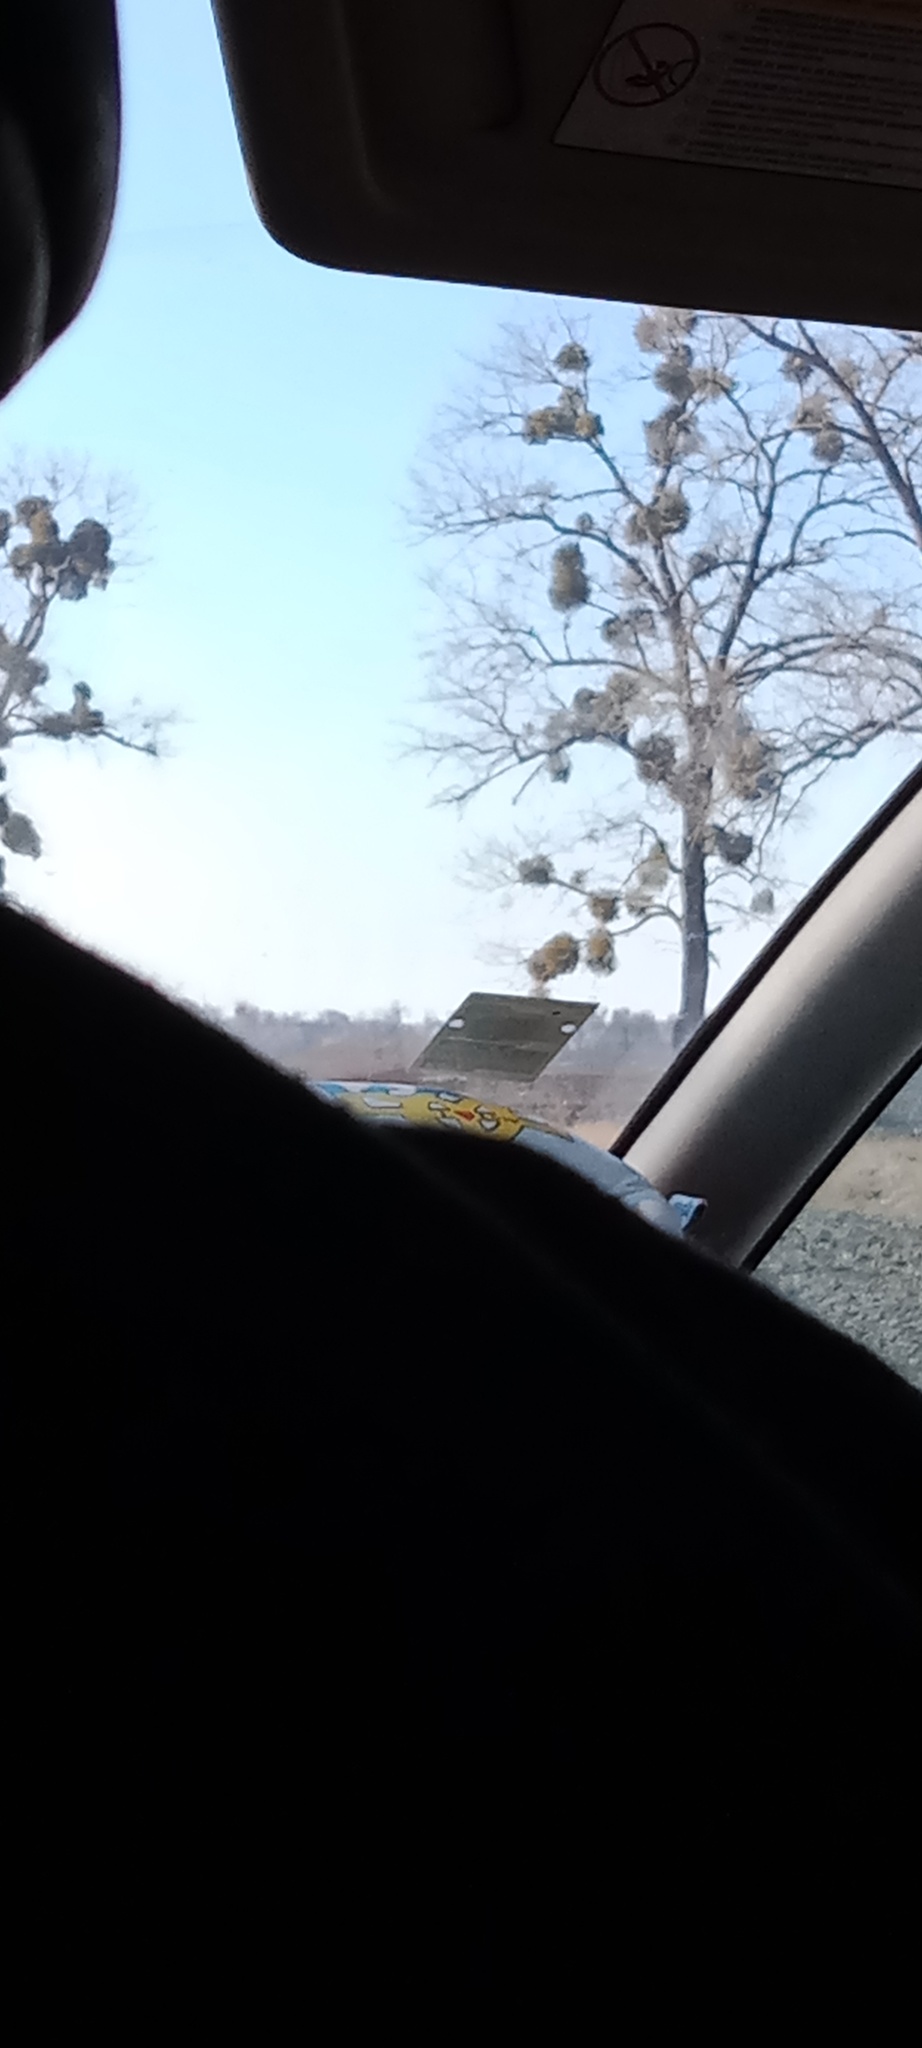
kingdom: Plantae
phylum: Tracheophyta
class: Magnoliopsida
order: Santalales
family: Viscaceae
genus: Viscum
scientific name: Viscum album
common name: Mistletoe
